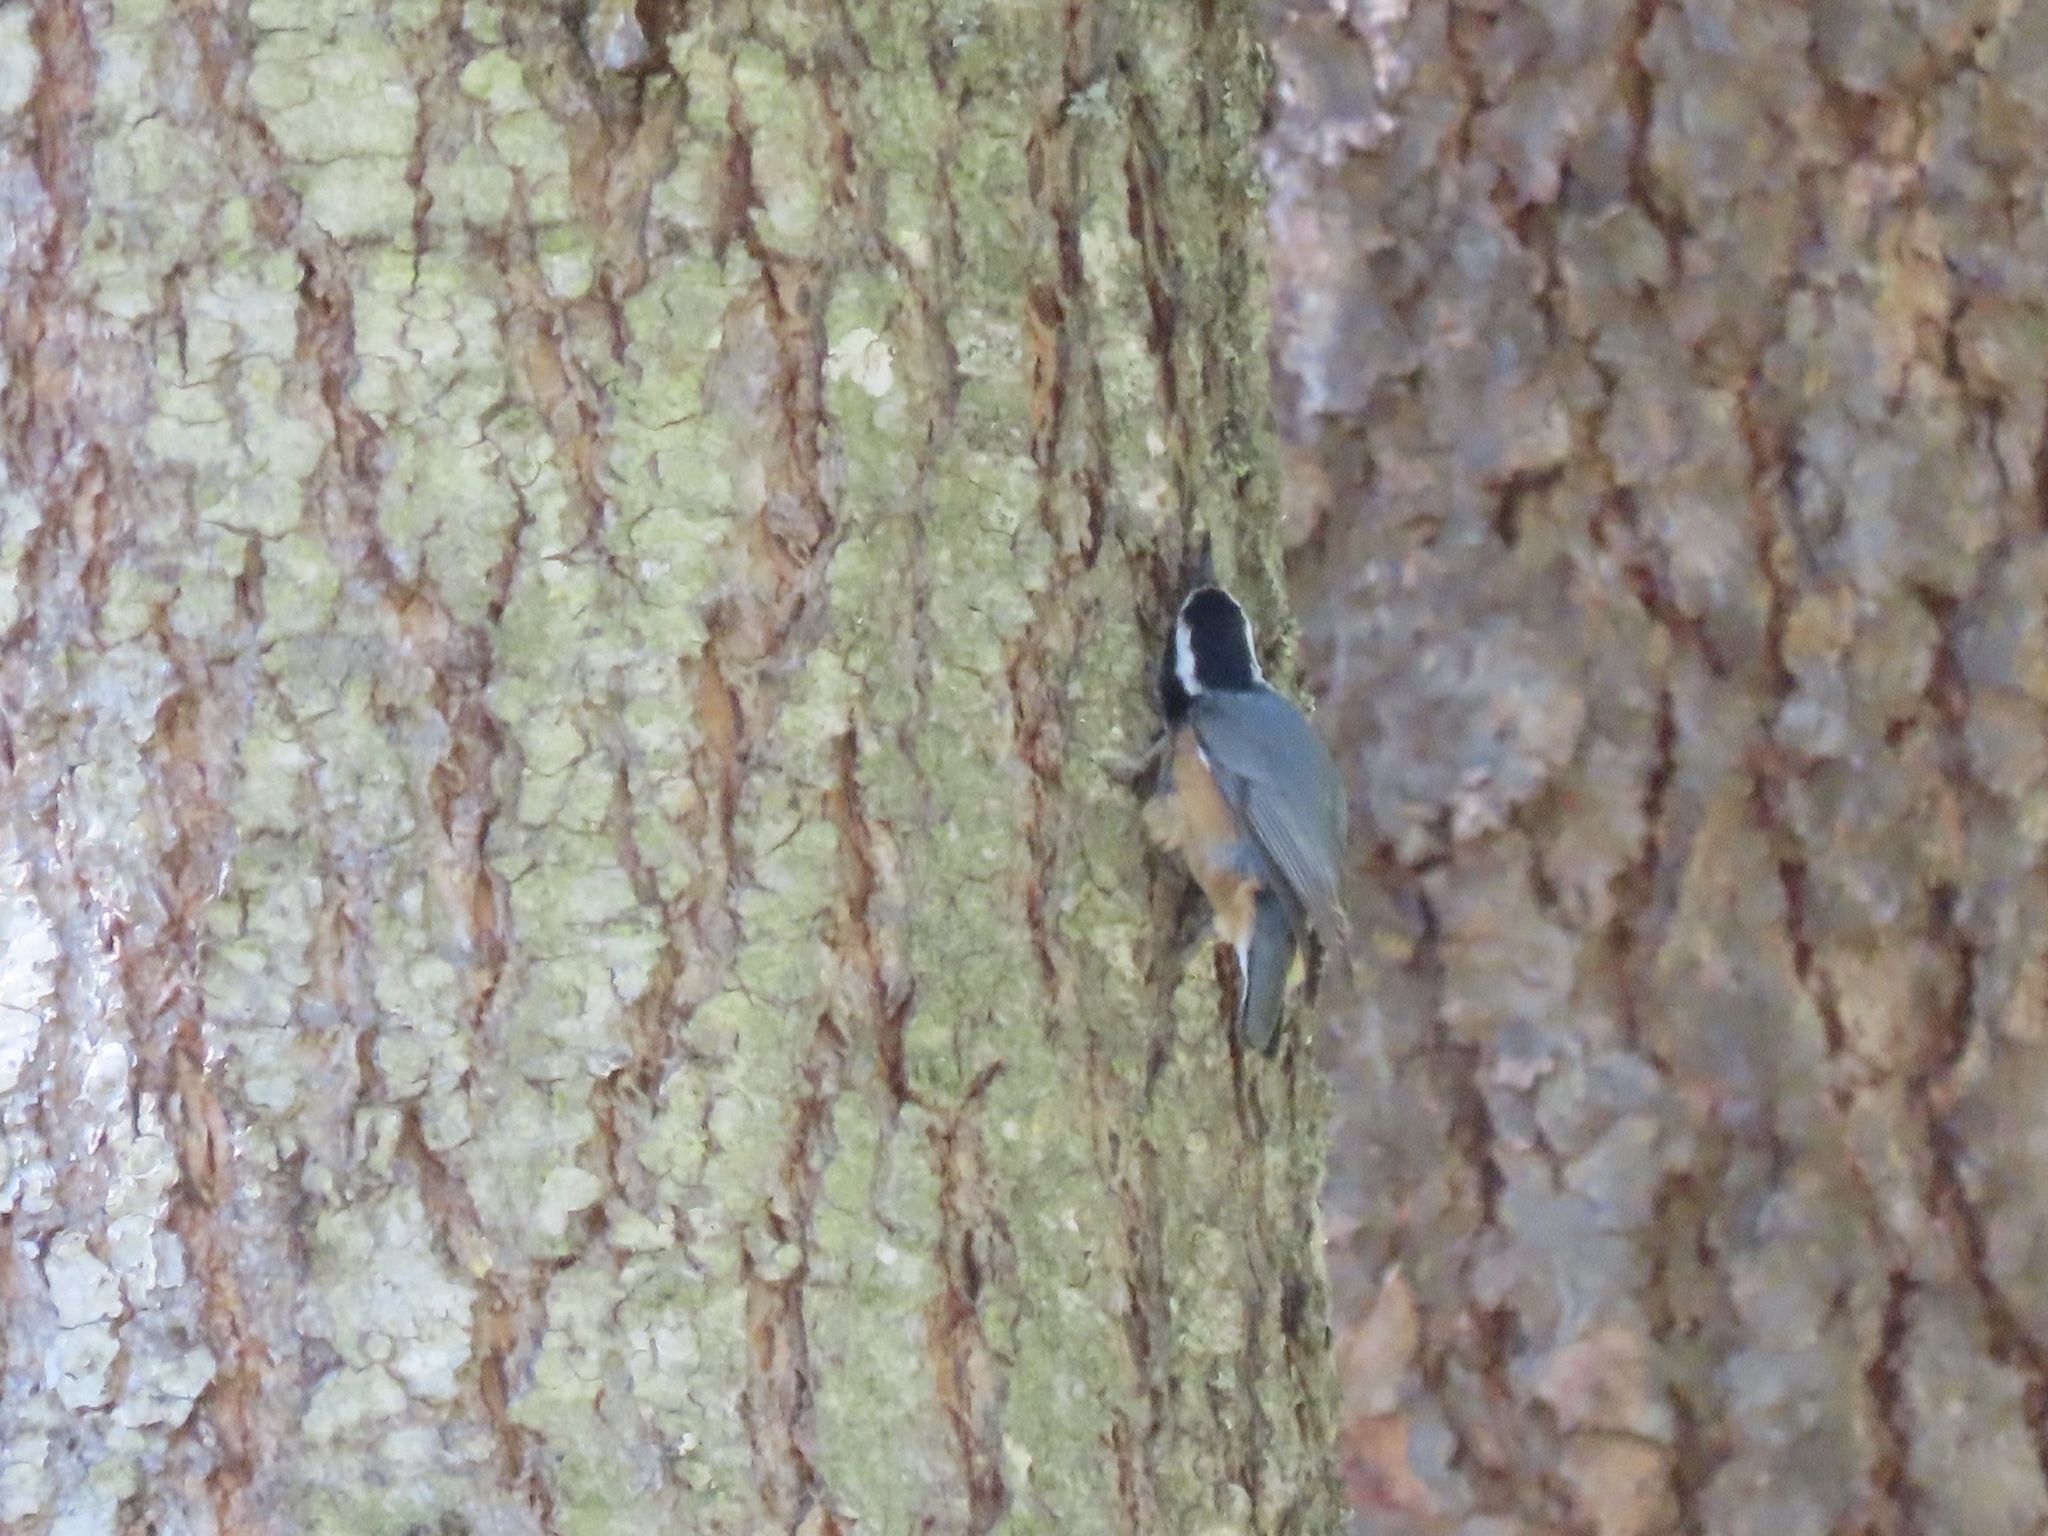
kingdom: Animalia
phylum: Chordata
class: Aves
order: Passeriformes
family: Sittidae
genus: Sitta
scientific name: Sitta canadensis
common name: Red-breasted nuthatch
